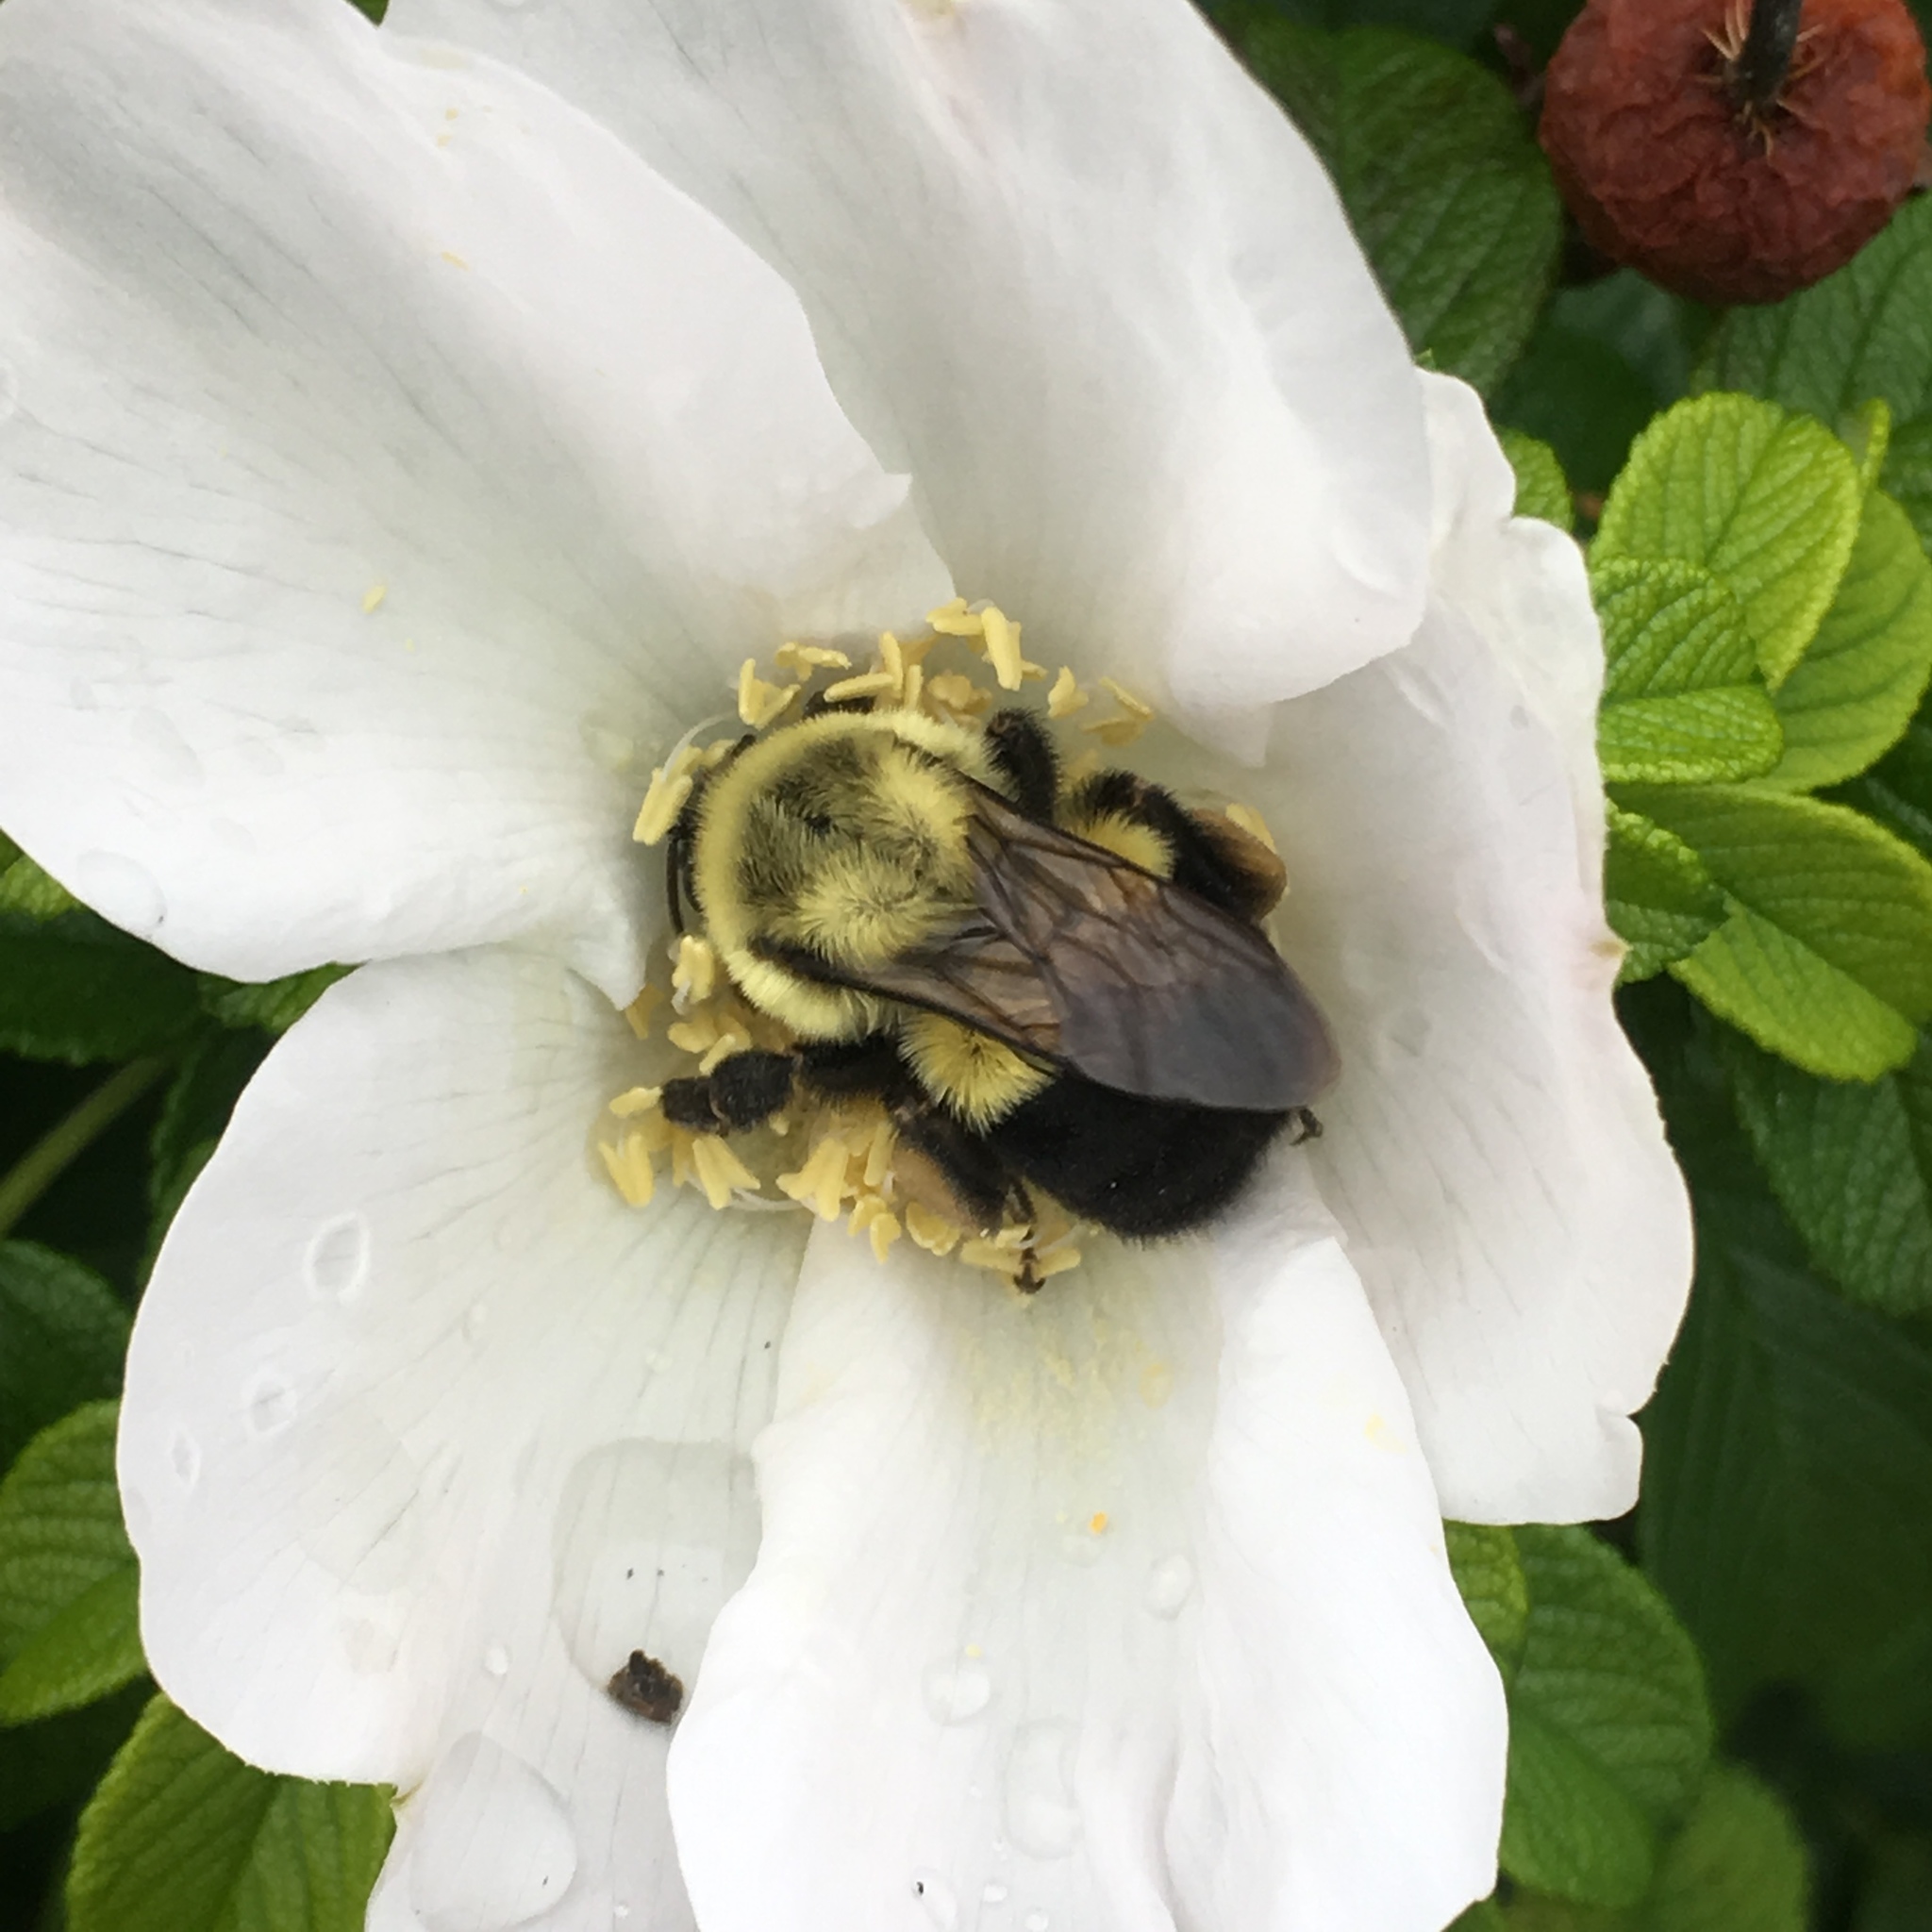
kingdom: Animalia
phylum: Arthropoda
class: Insecta
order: Hymenoptera
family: Apidae
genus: Bombus
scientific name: Bombus impatiens
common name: Common eastern bumble bee
